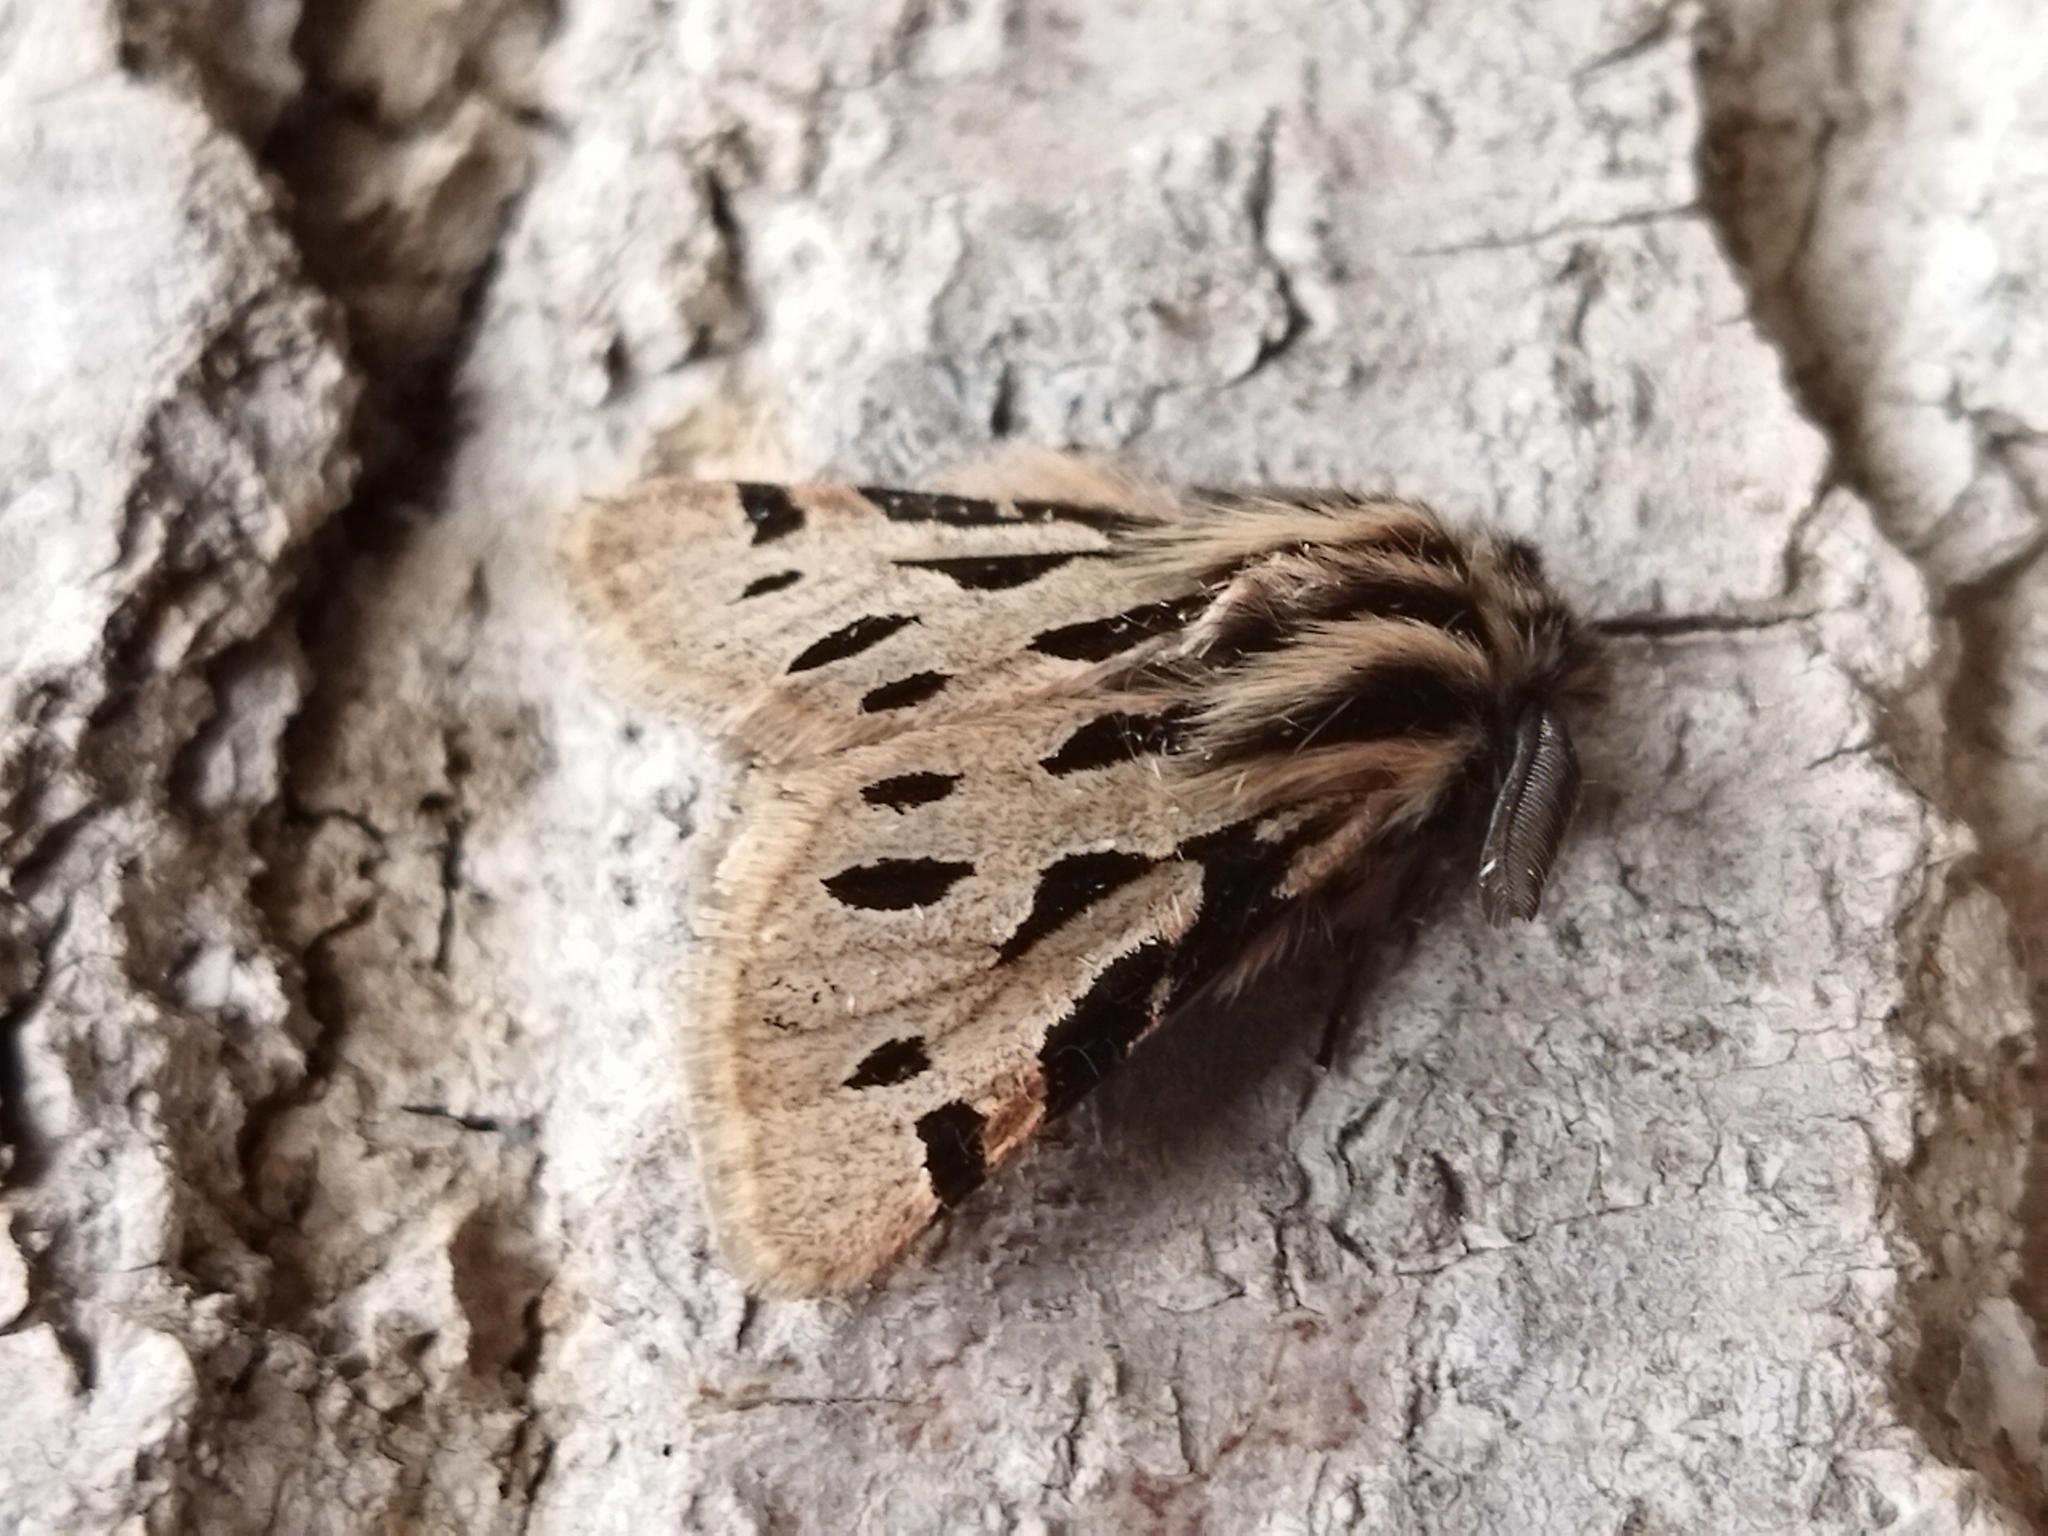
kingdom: Animalia
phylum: Arthropoda
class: Insecta
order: Lepidoptera
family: Erebidae
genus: Ocnogyna
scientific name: Ocnogyna parasita
